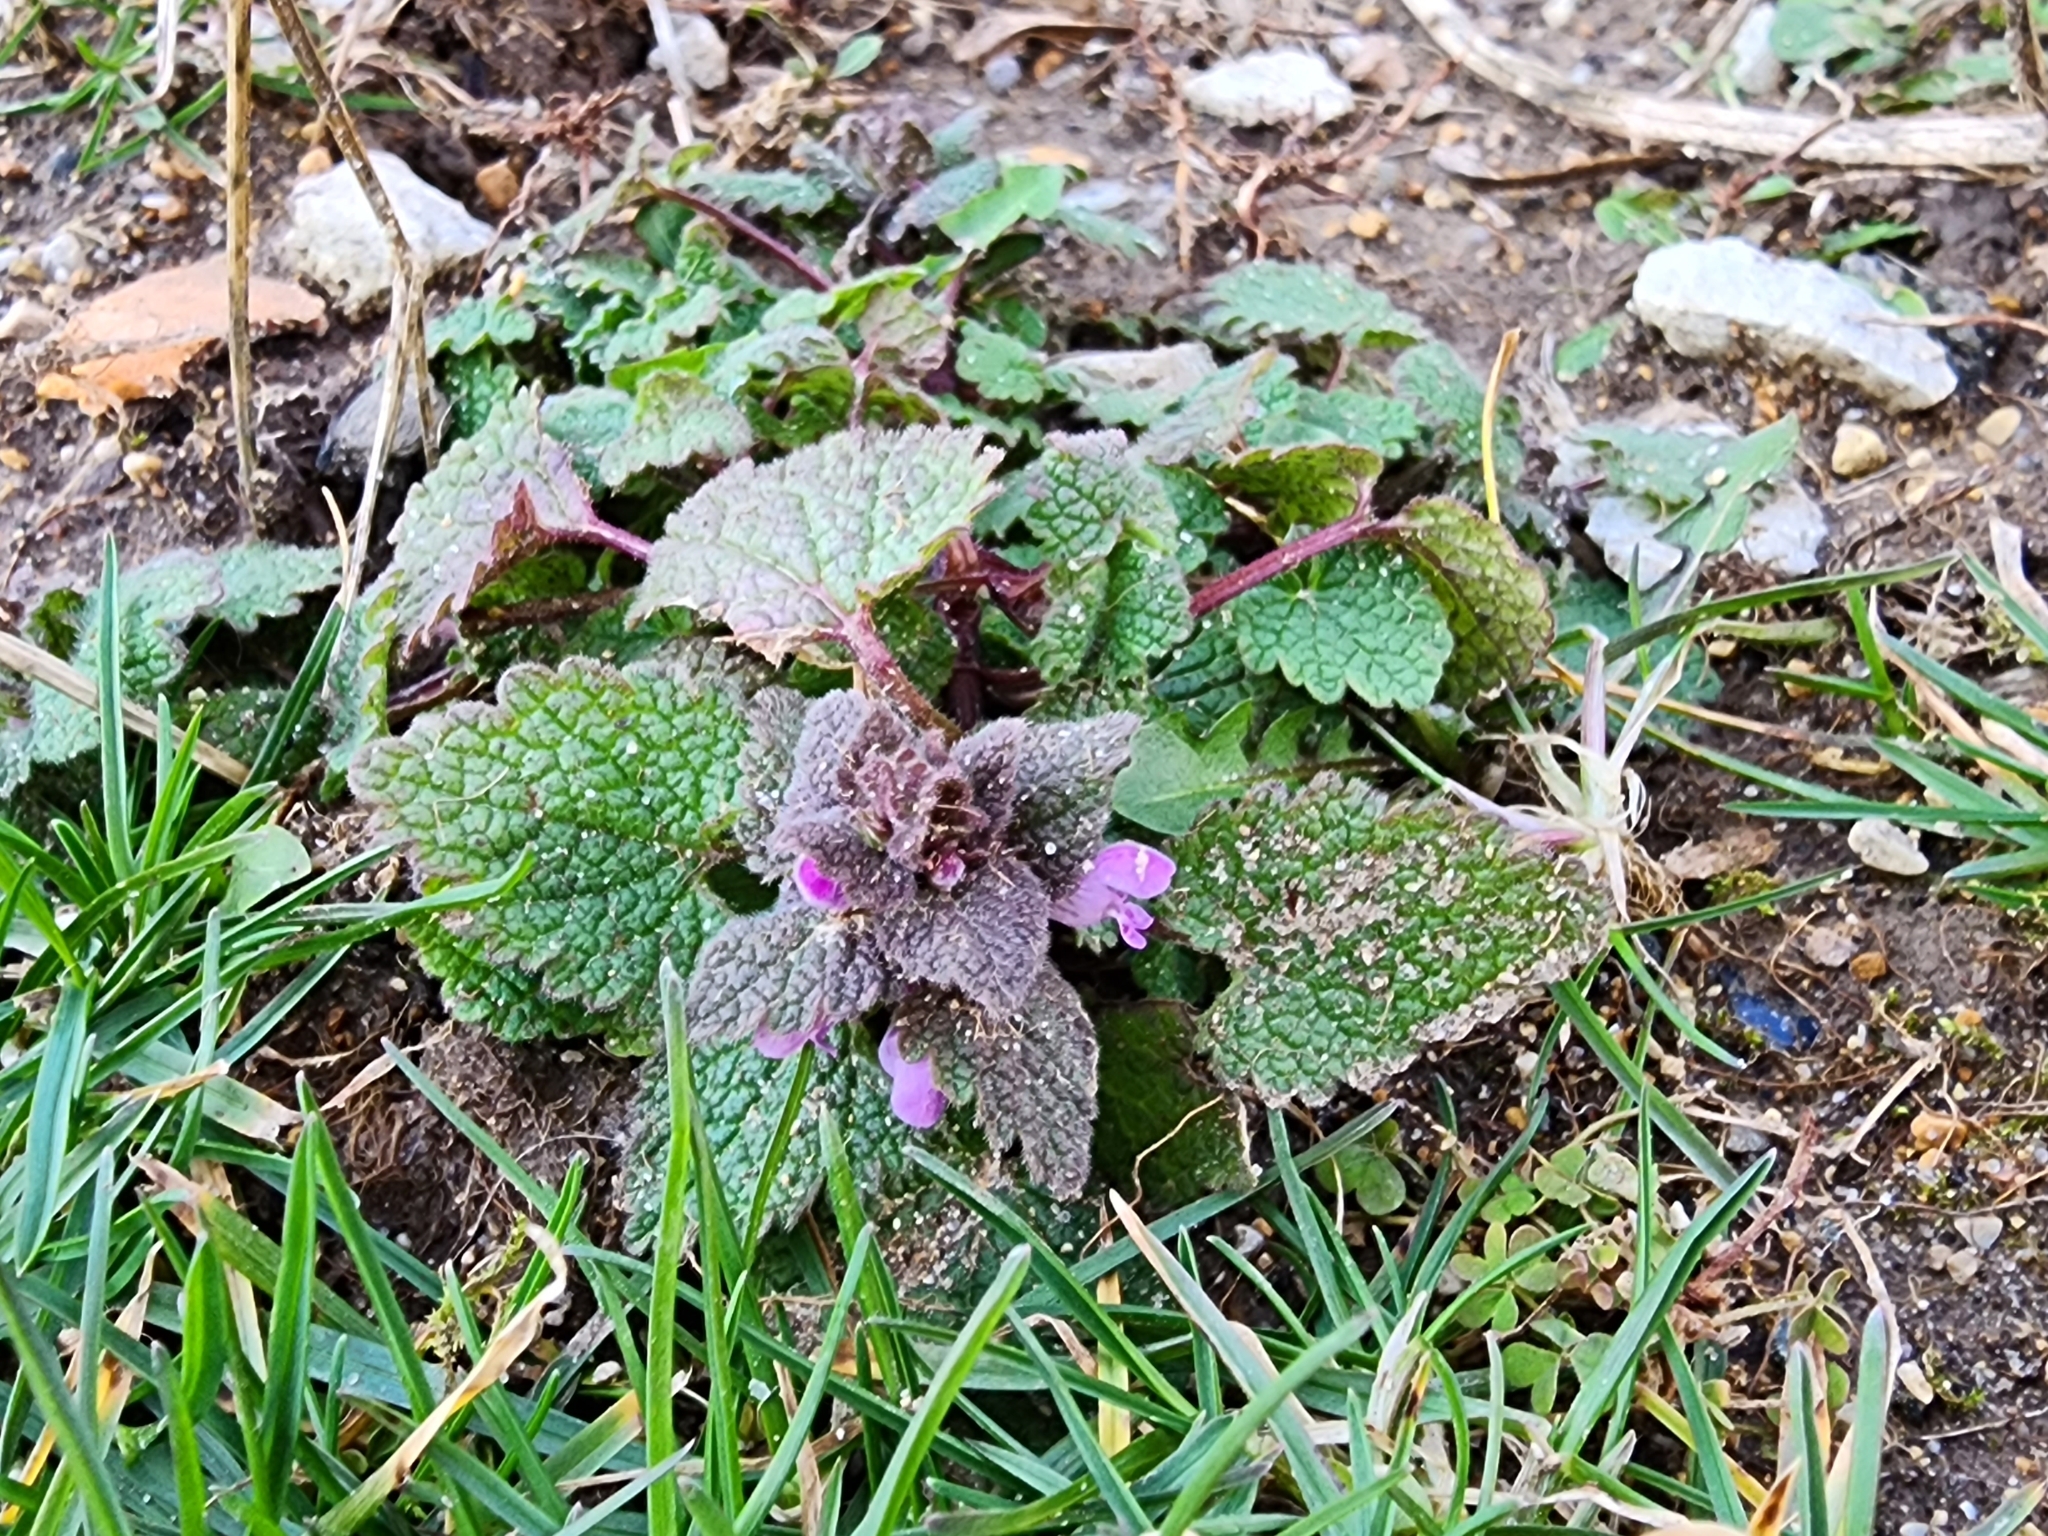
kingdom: Plantae
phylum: Tracheophyta
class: Magnoliopsida
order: Lamiales
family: Lamiaceae
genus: Lamium
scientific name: Lamium purpureum
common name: Red dead-nettle
